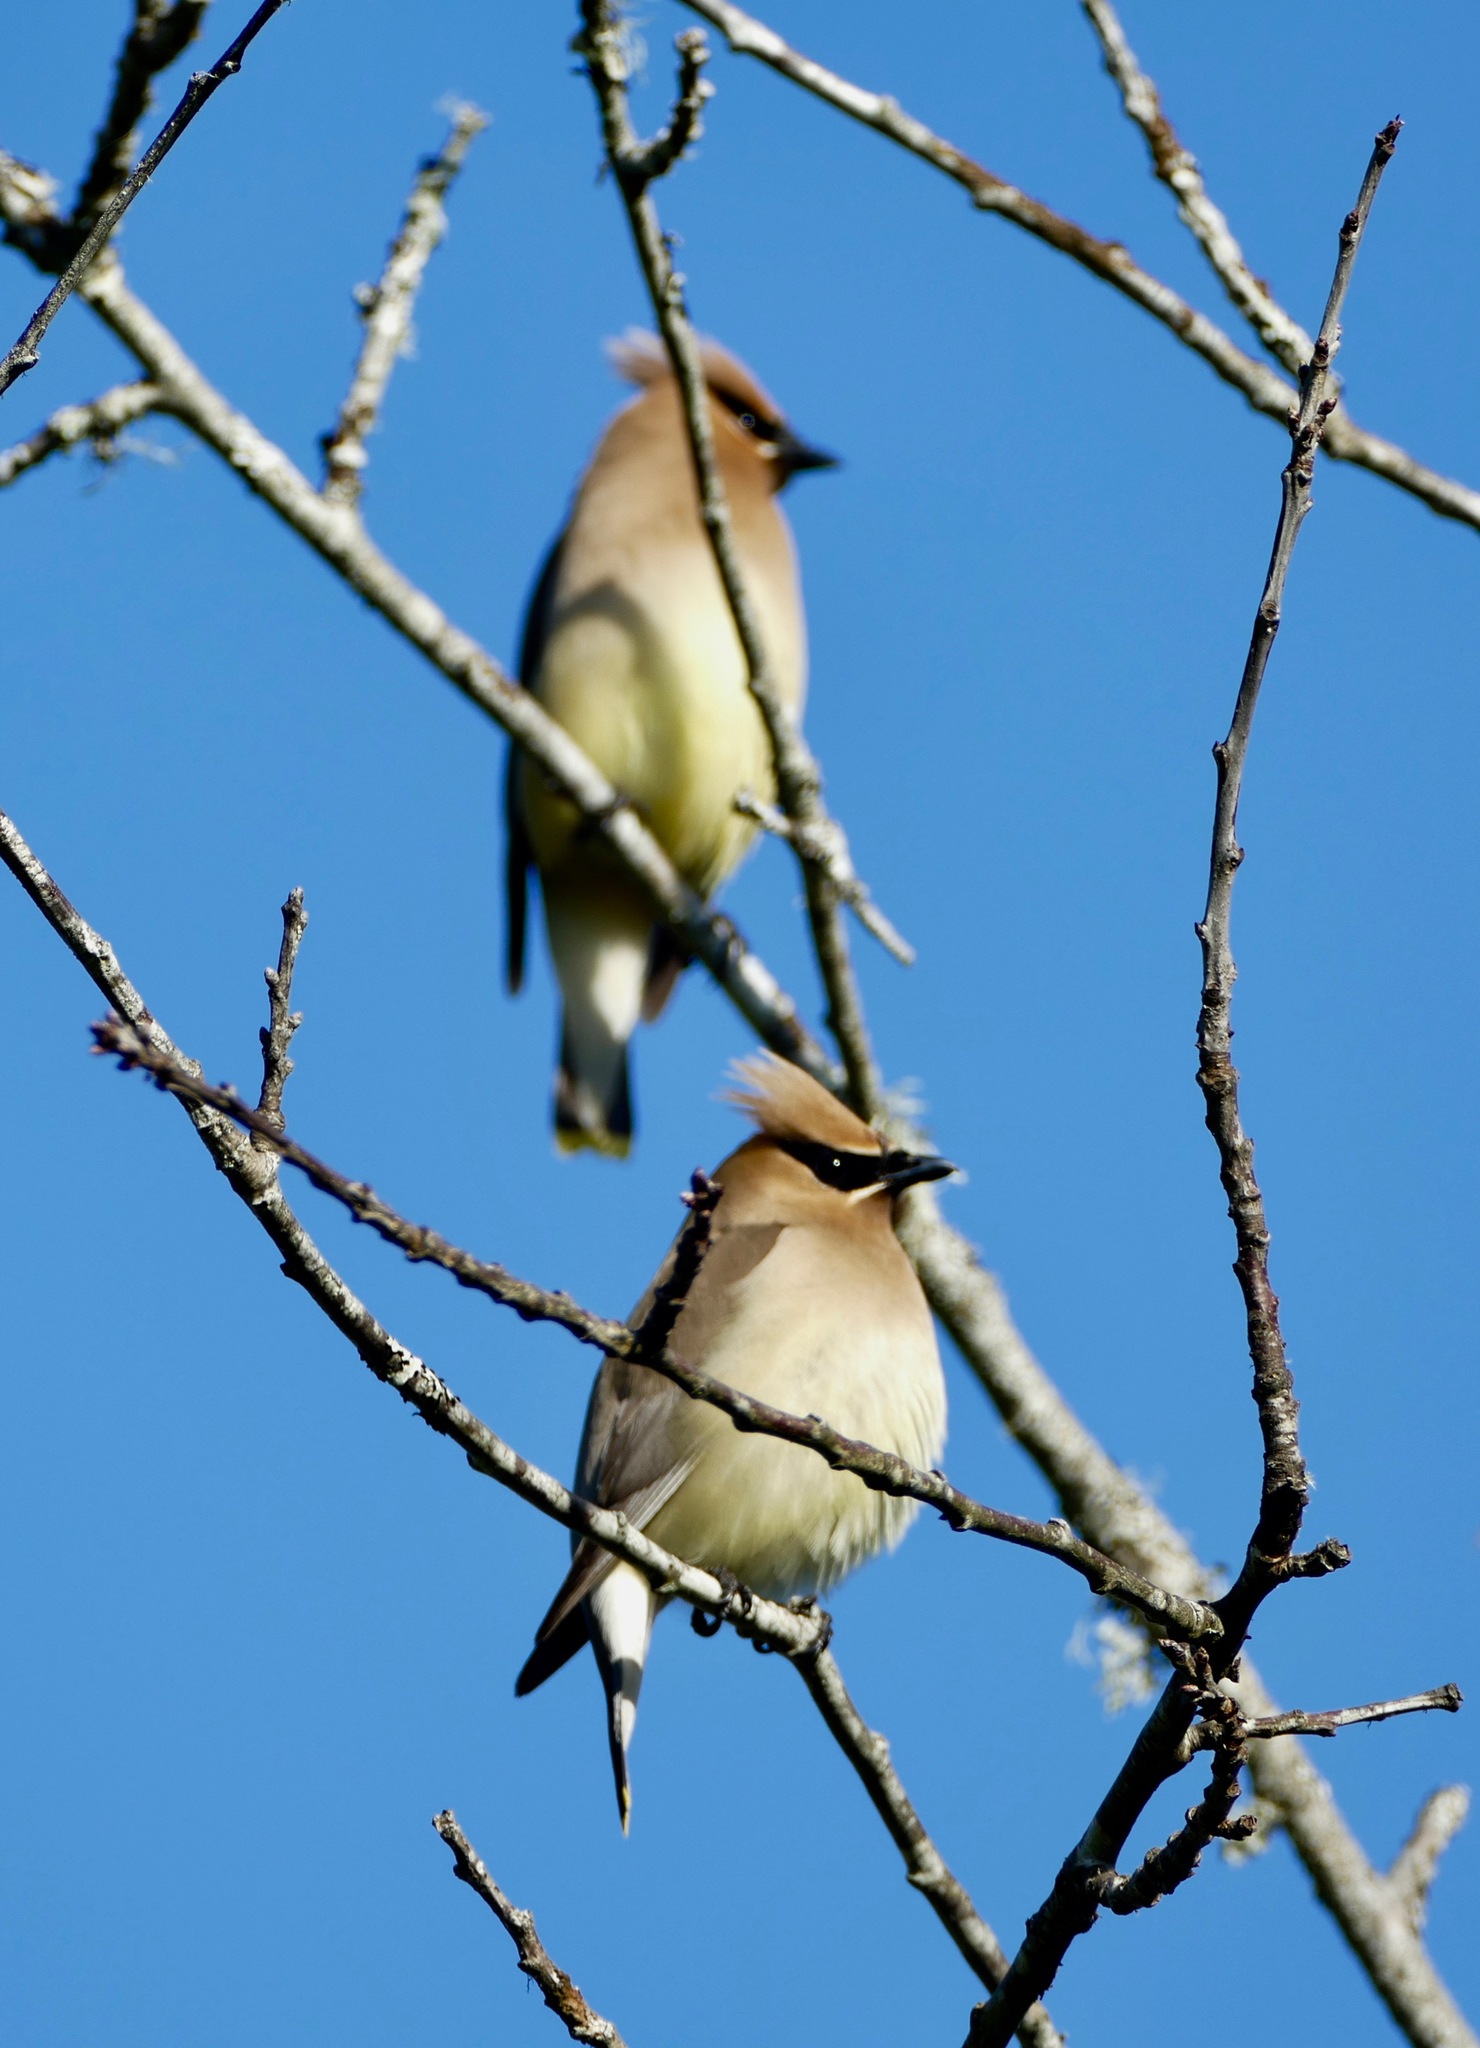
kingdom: Animalia
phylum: Chordata
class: Aves
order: Passeriformes
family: Bombycillidae
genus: Bombycilla
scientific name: Bombycilla cedrorum
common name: Cedar waxwing
